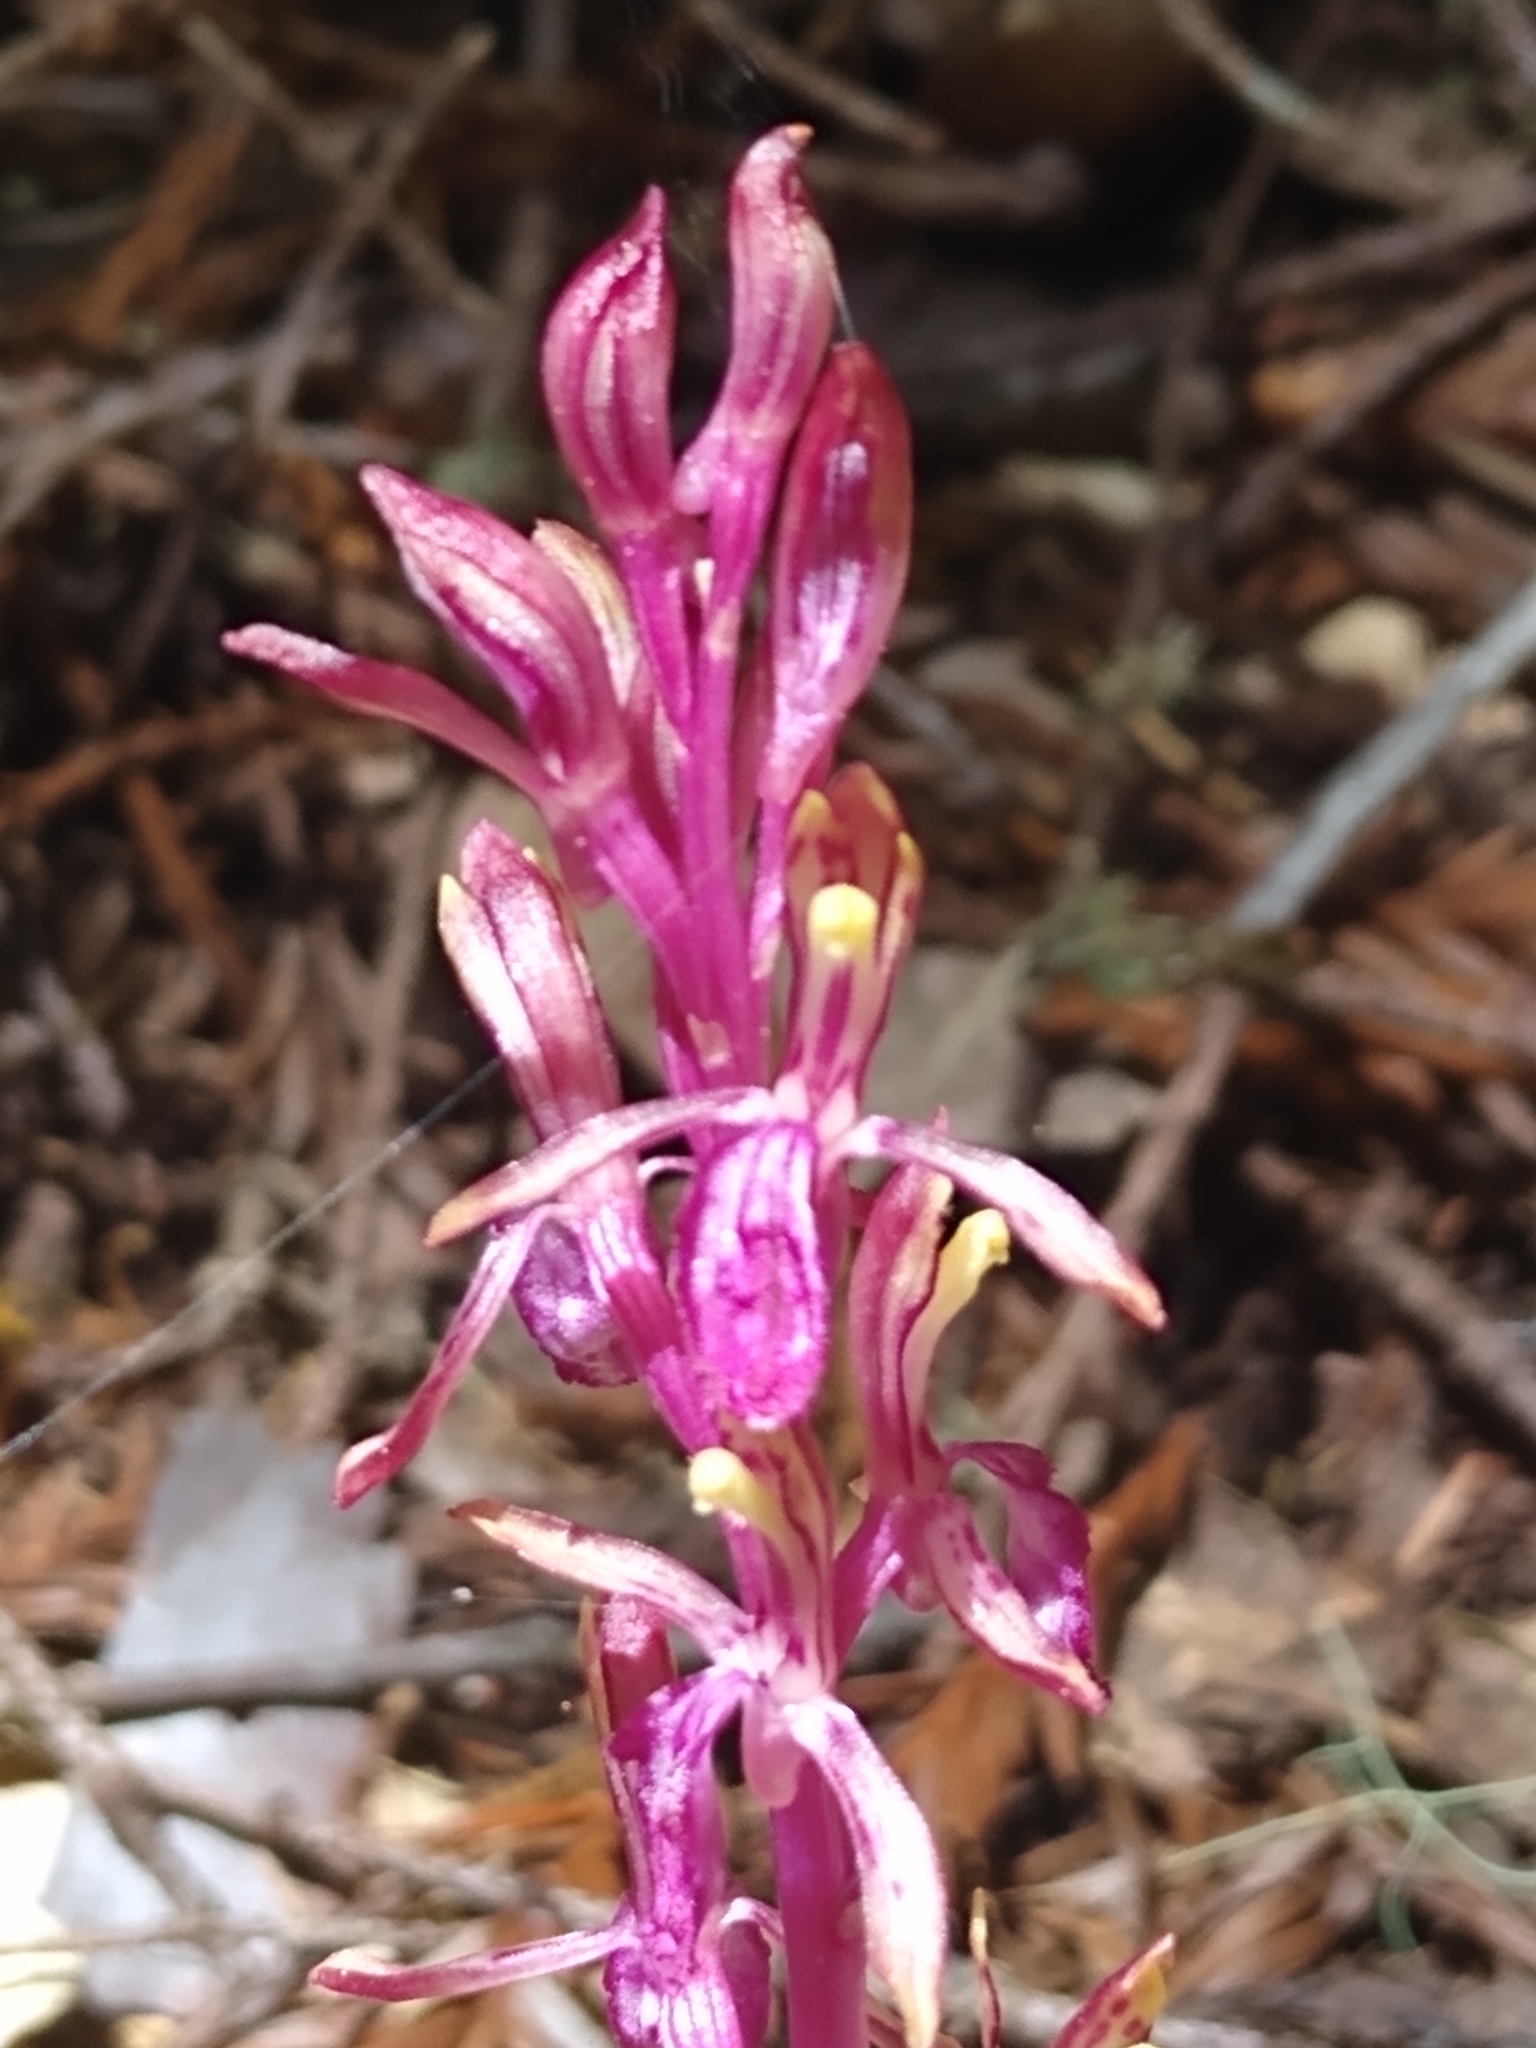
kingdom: Plantae
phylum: Tracheophyta
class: Liliopsida
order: Asparagales
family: Orchidaceae
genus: Corallorhiza
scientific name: Corallorhiza mertensiana
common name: Pacific coralroot
